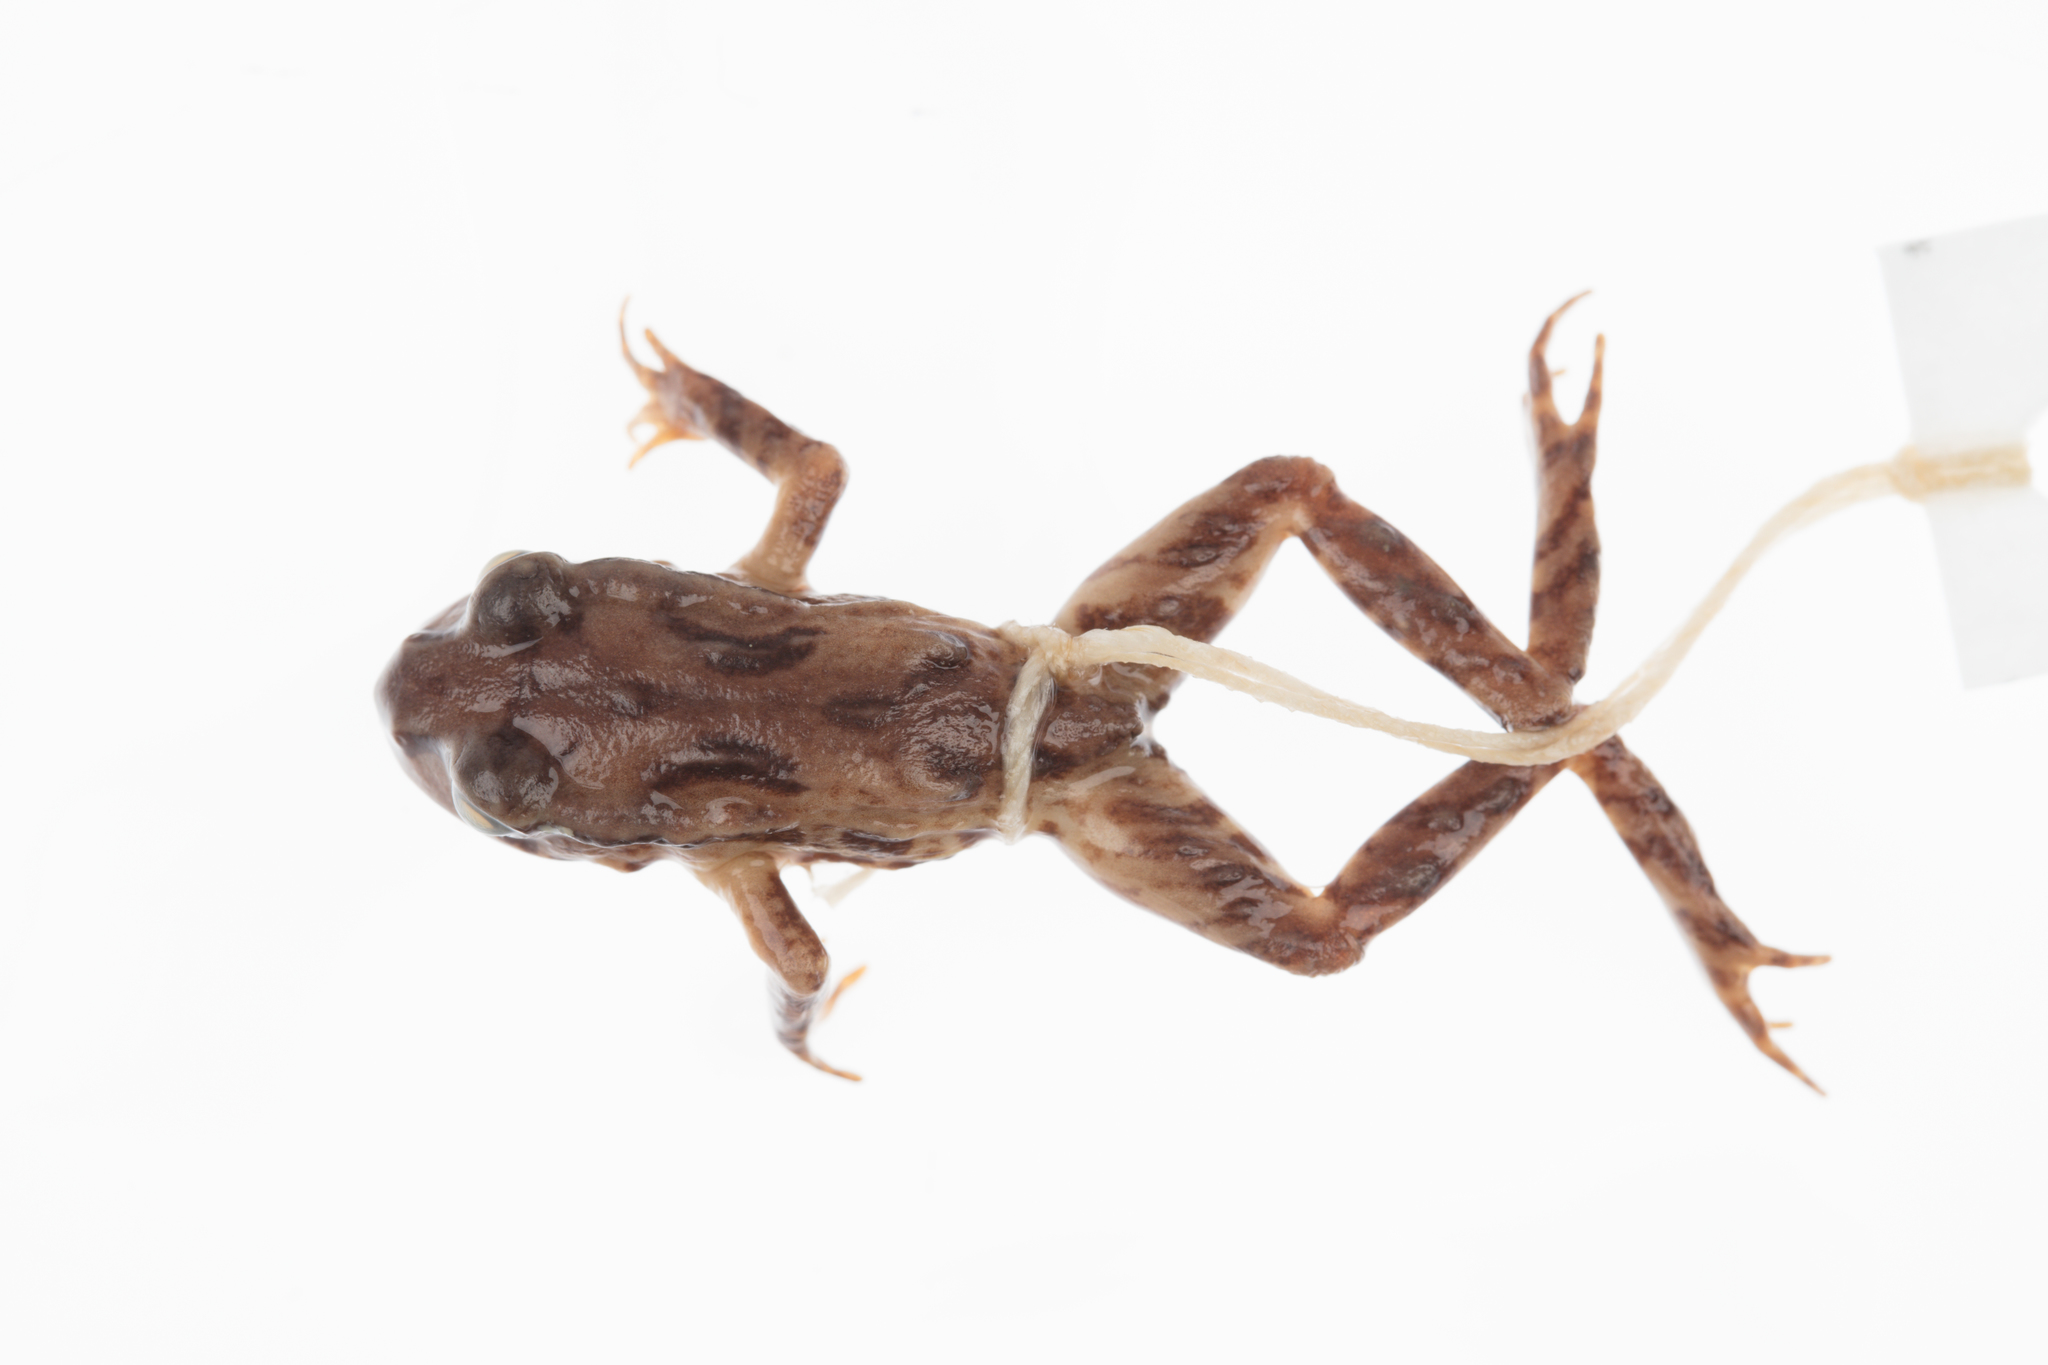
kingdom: Animalia
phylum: Chordata
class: Amphibia
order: Anura
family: Leiopelmatidae
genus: Leiopelma
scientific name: Leiopelma archeyi
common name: Archey's frog
